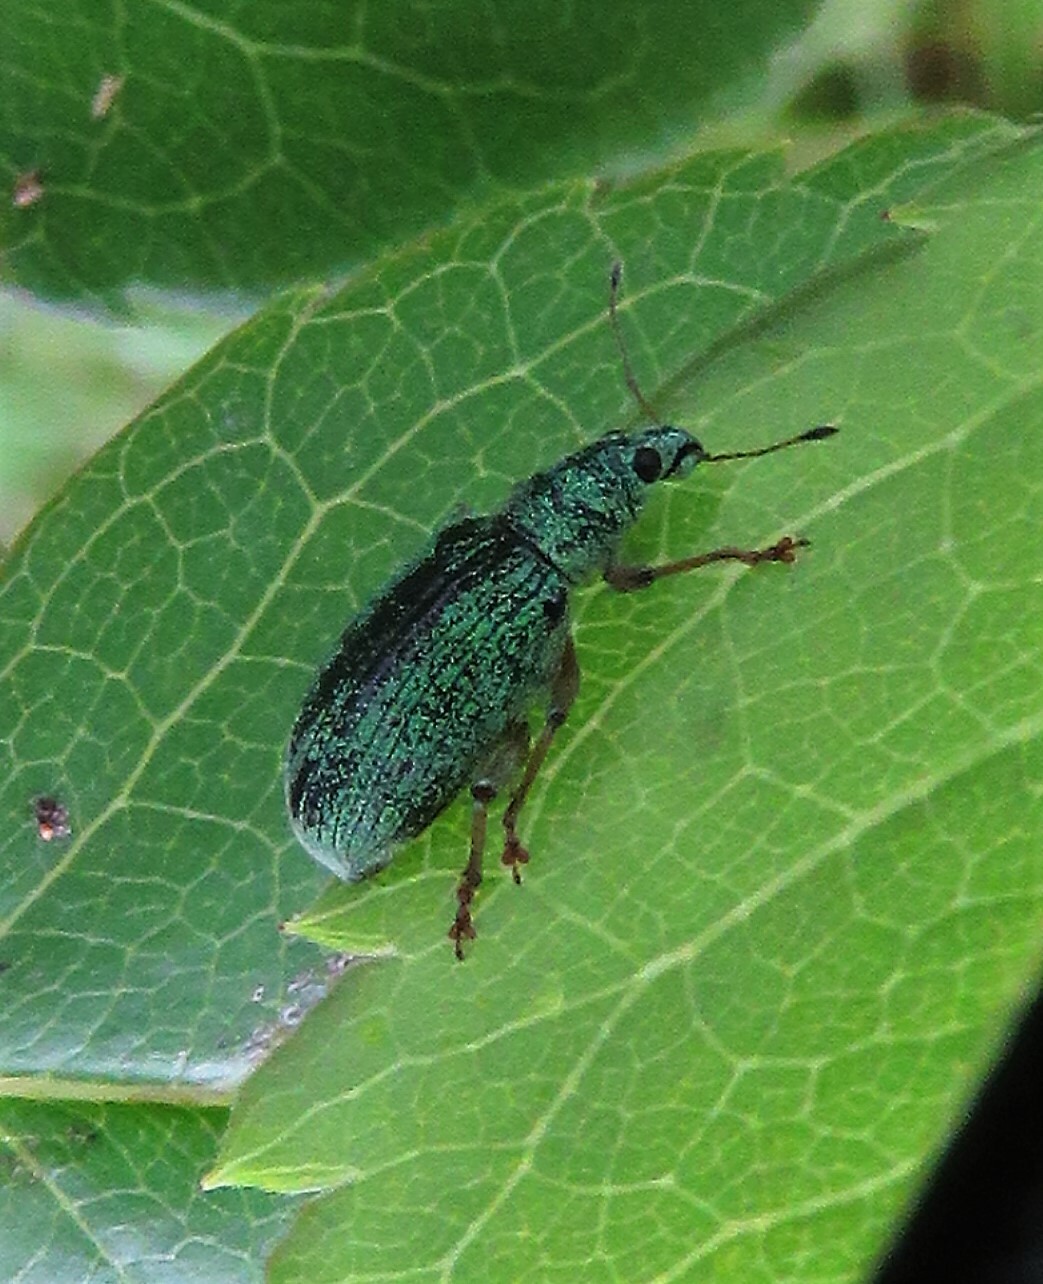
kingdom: Animalia
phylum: Arthropoda
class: Insecta
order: Coleoptera
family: Curculionidae
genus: Polydrusus
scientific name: Polydrusus formosus
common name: Weevil
